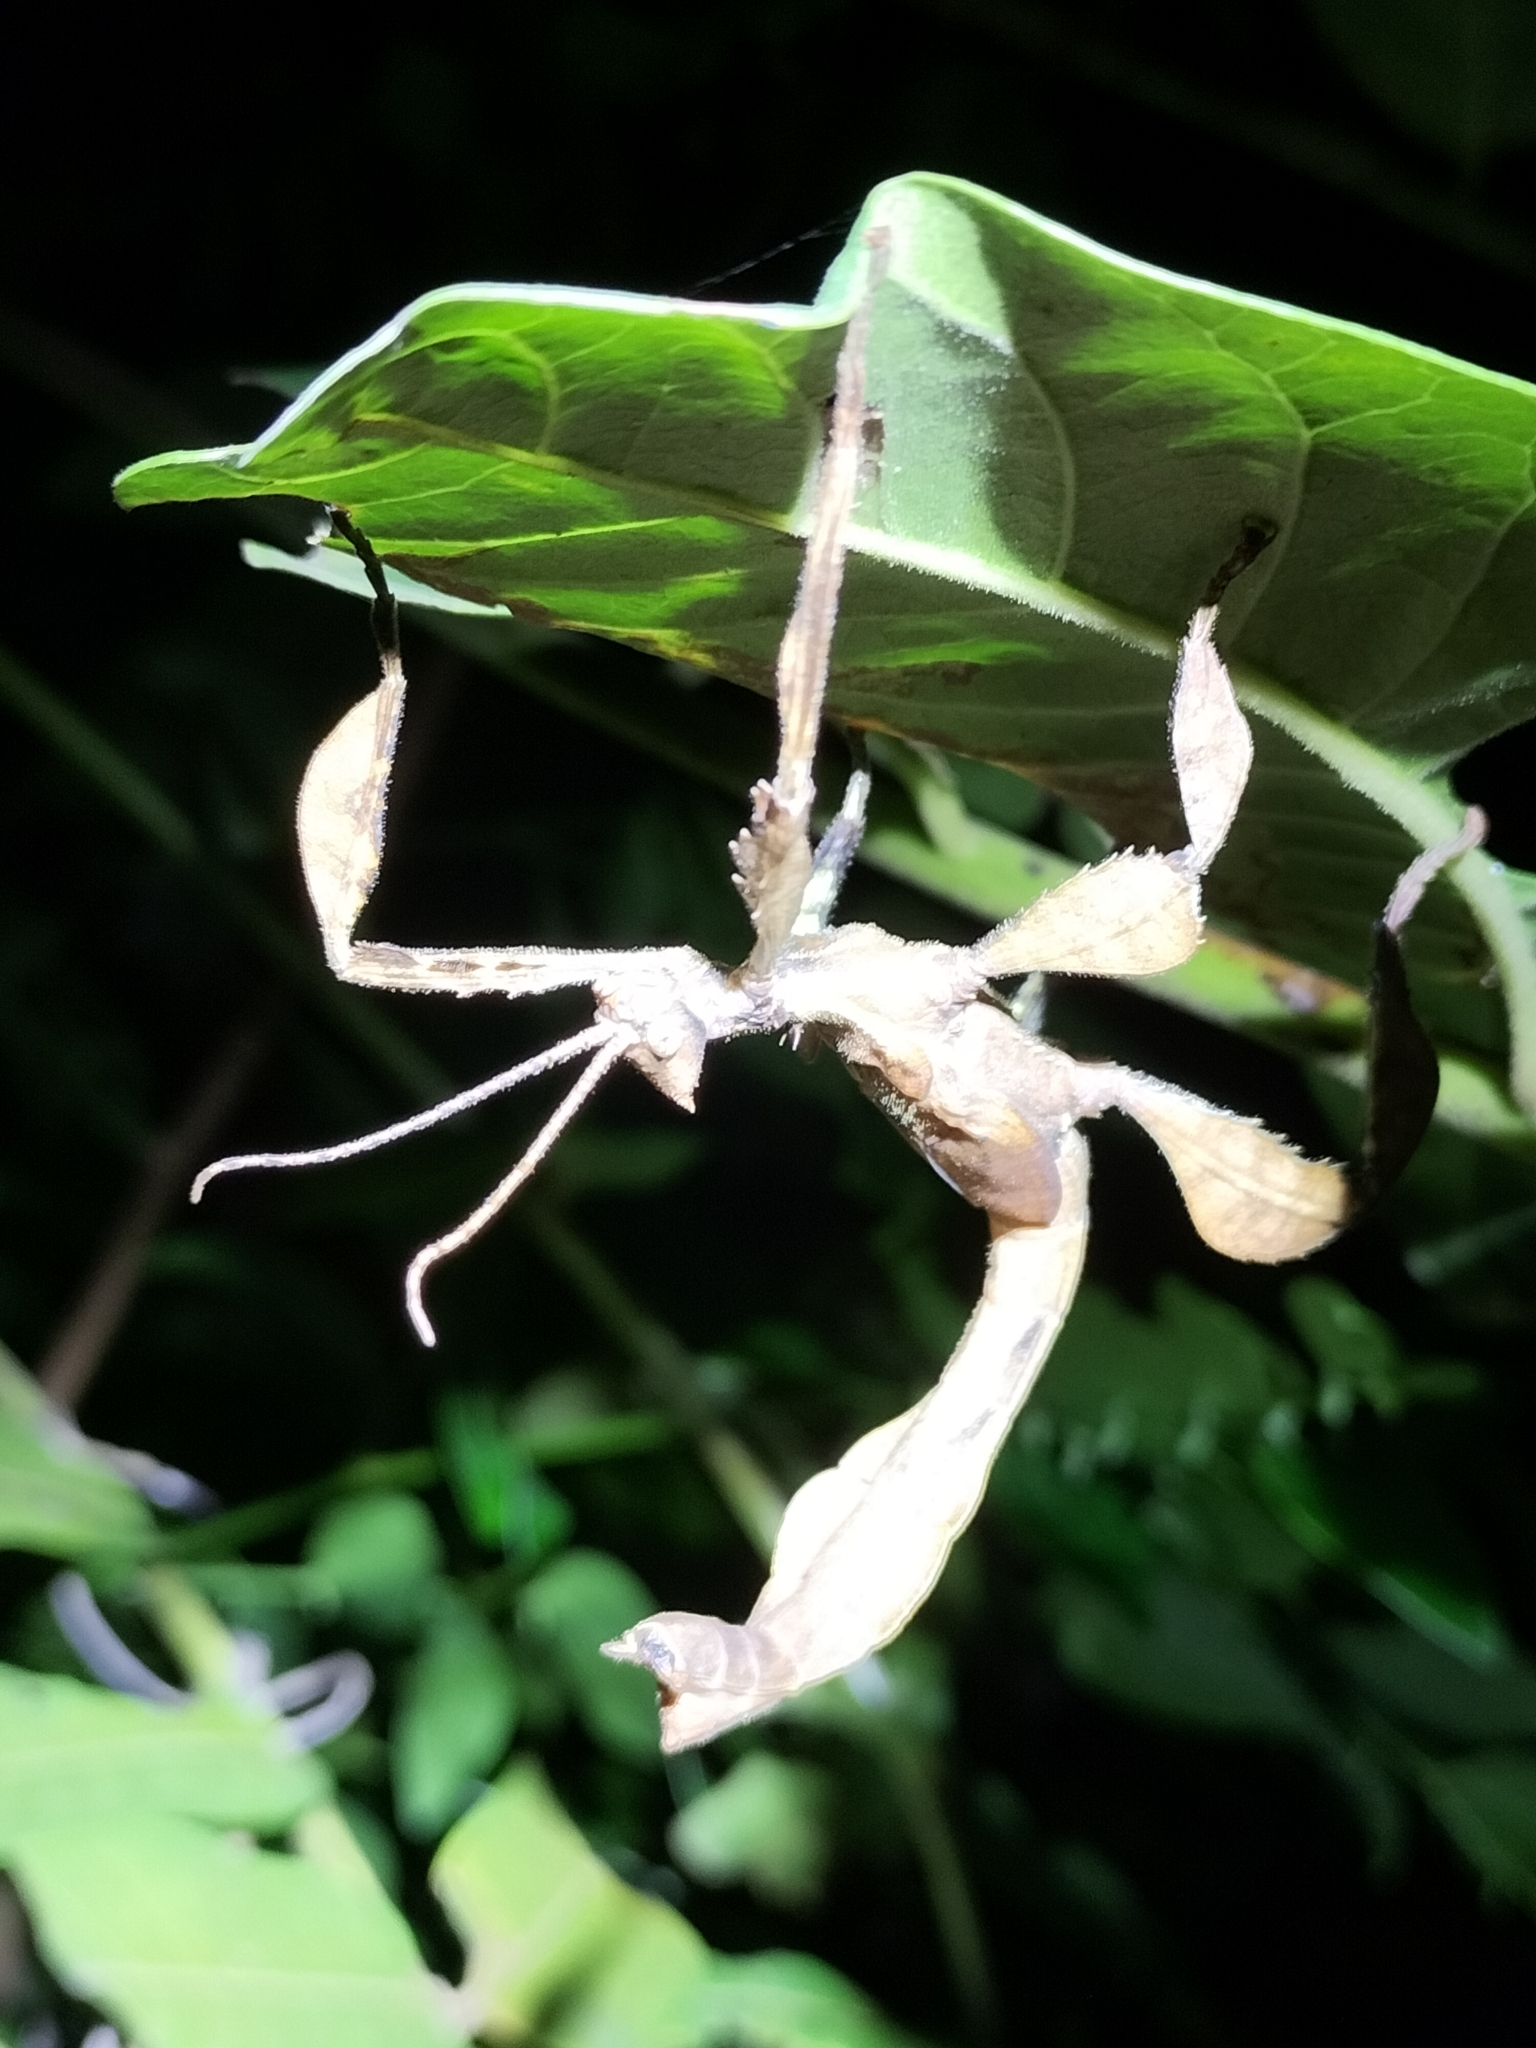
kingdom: Animalia
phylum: Arthropoda
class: Insecta
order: Phasmida
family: Phasmatidae
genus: Extatosoma
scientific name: Extatosoma tiaratum
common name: Macleay's spectre
